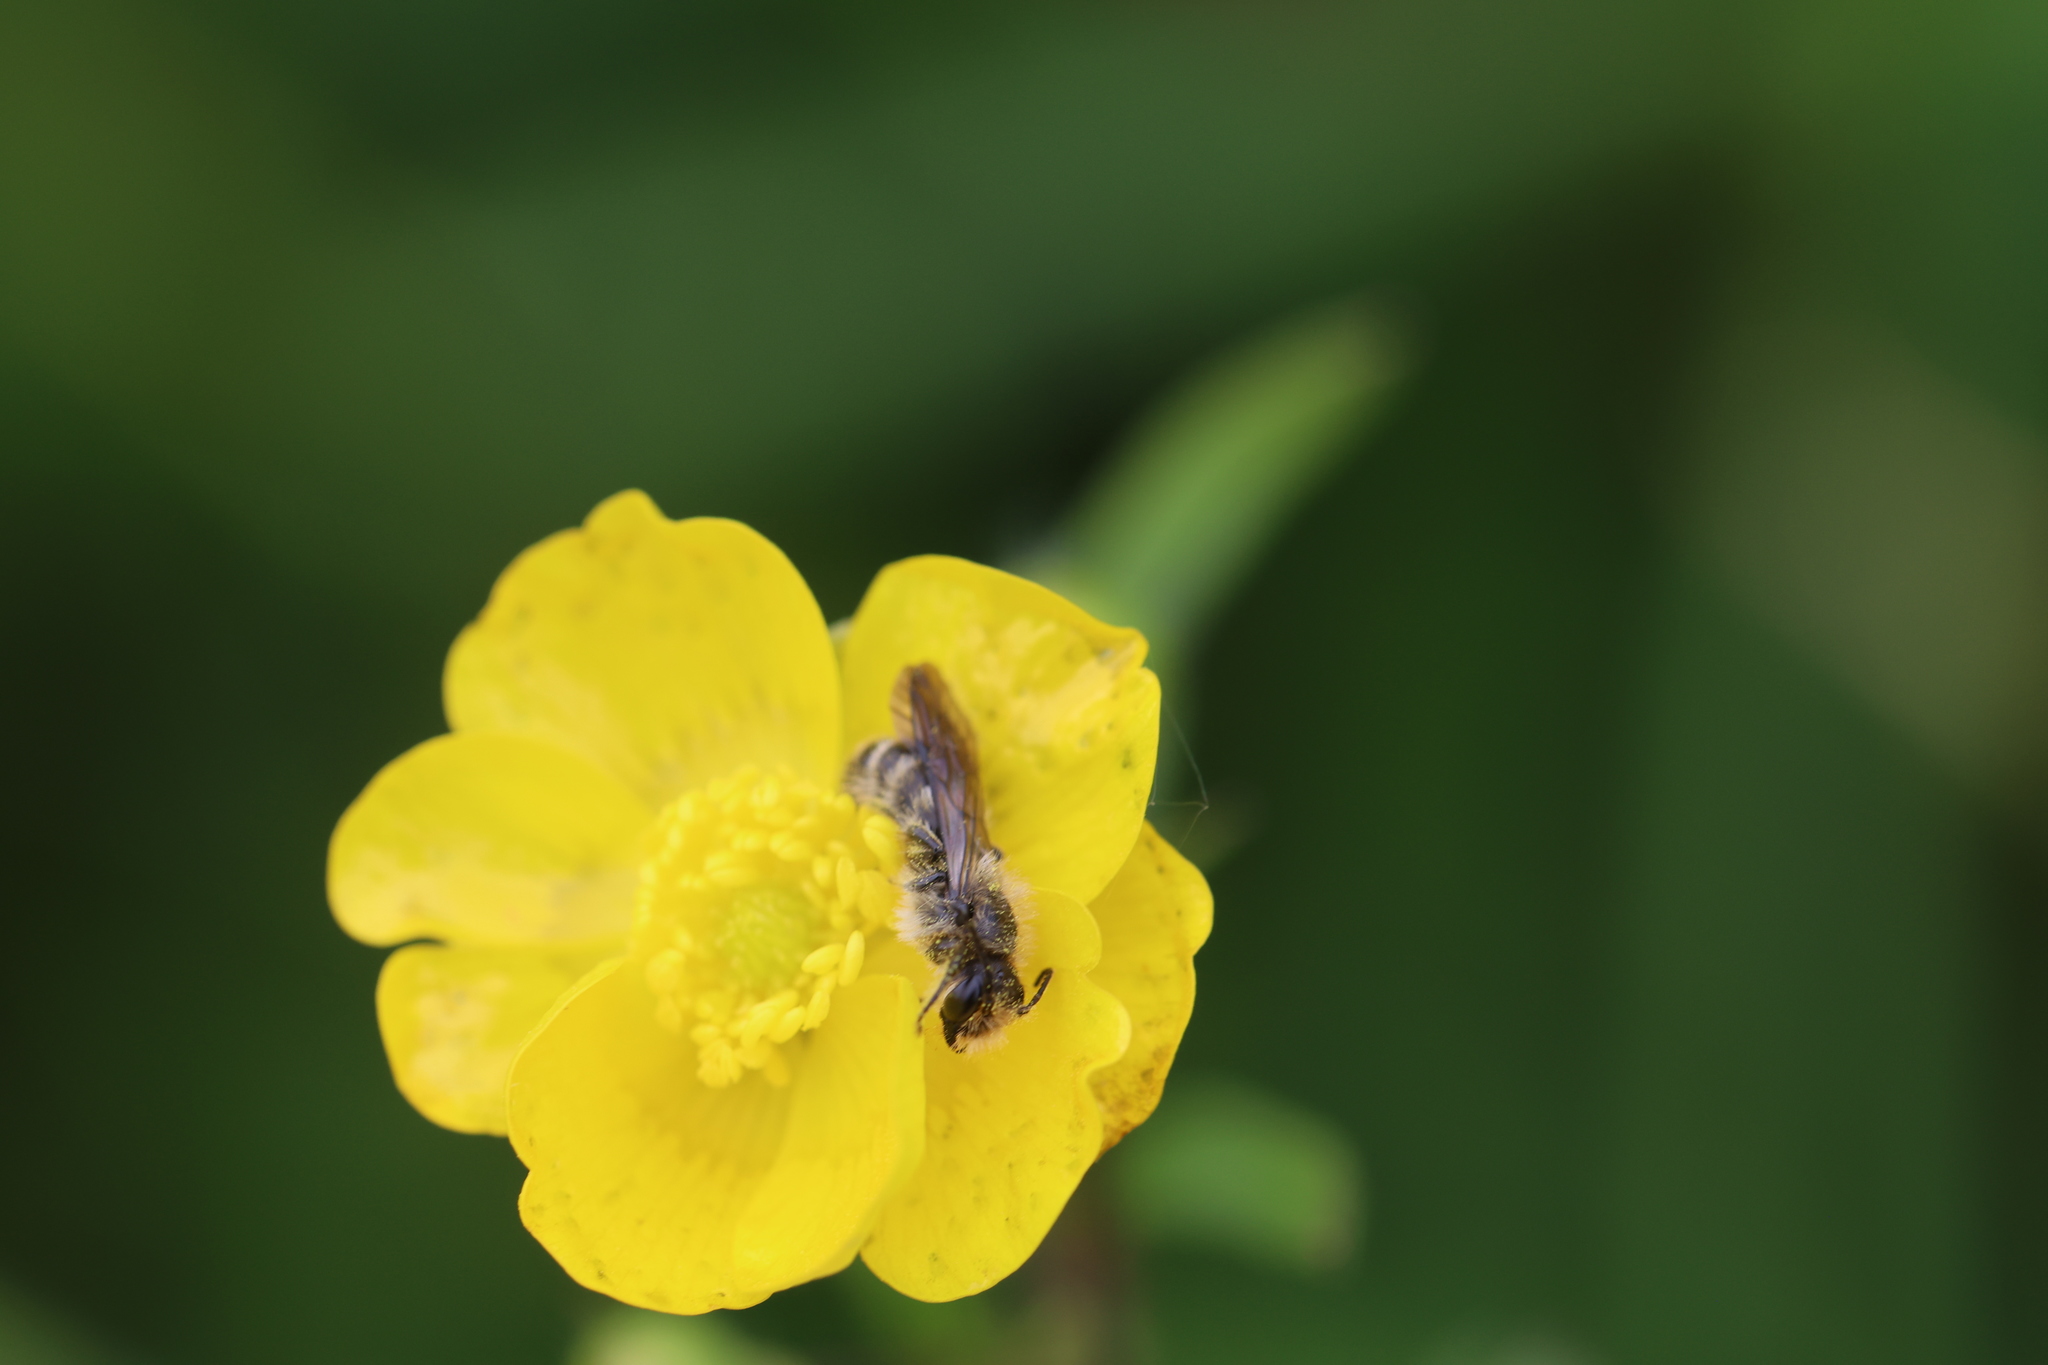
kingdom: Animalia
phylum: Arthropoda
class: Insecta
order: Hymenoptera
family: Megachilidae
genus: Chelostoma
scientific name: Chelostoma florisomne
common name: Sleepy carpenter bee
